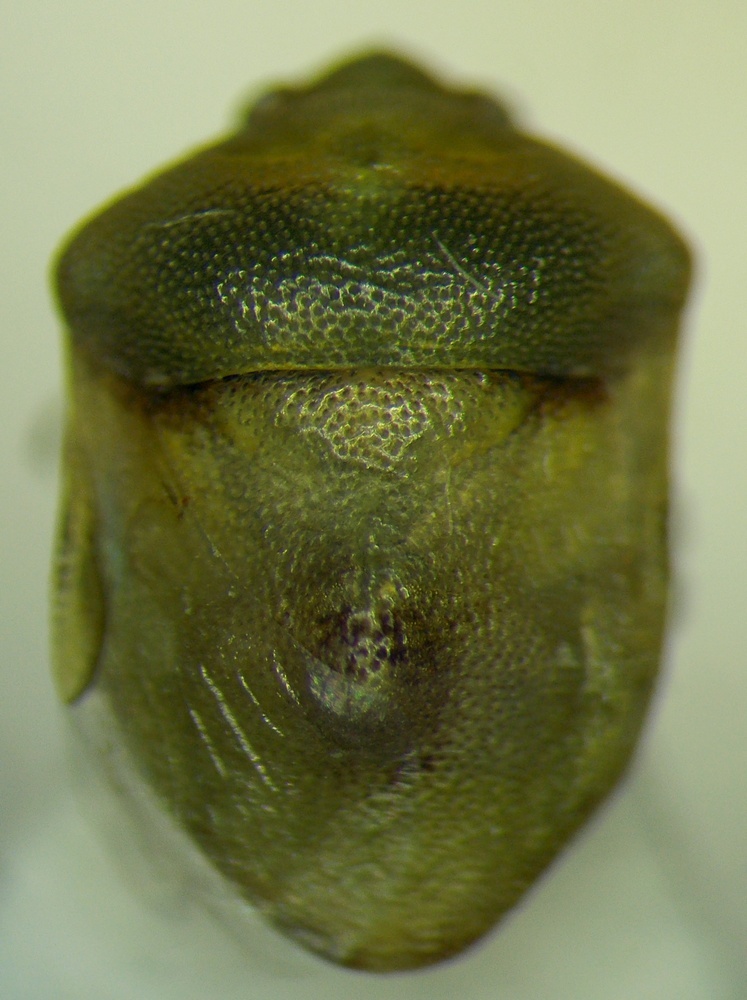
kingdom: Animalia
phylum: Arthropoda
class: Insecta
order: Hemiptera
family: Pentatomidae
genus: Tarisa
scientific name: Tarisa subspinosa
